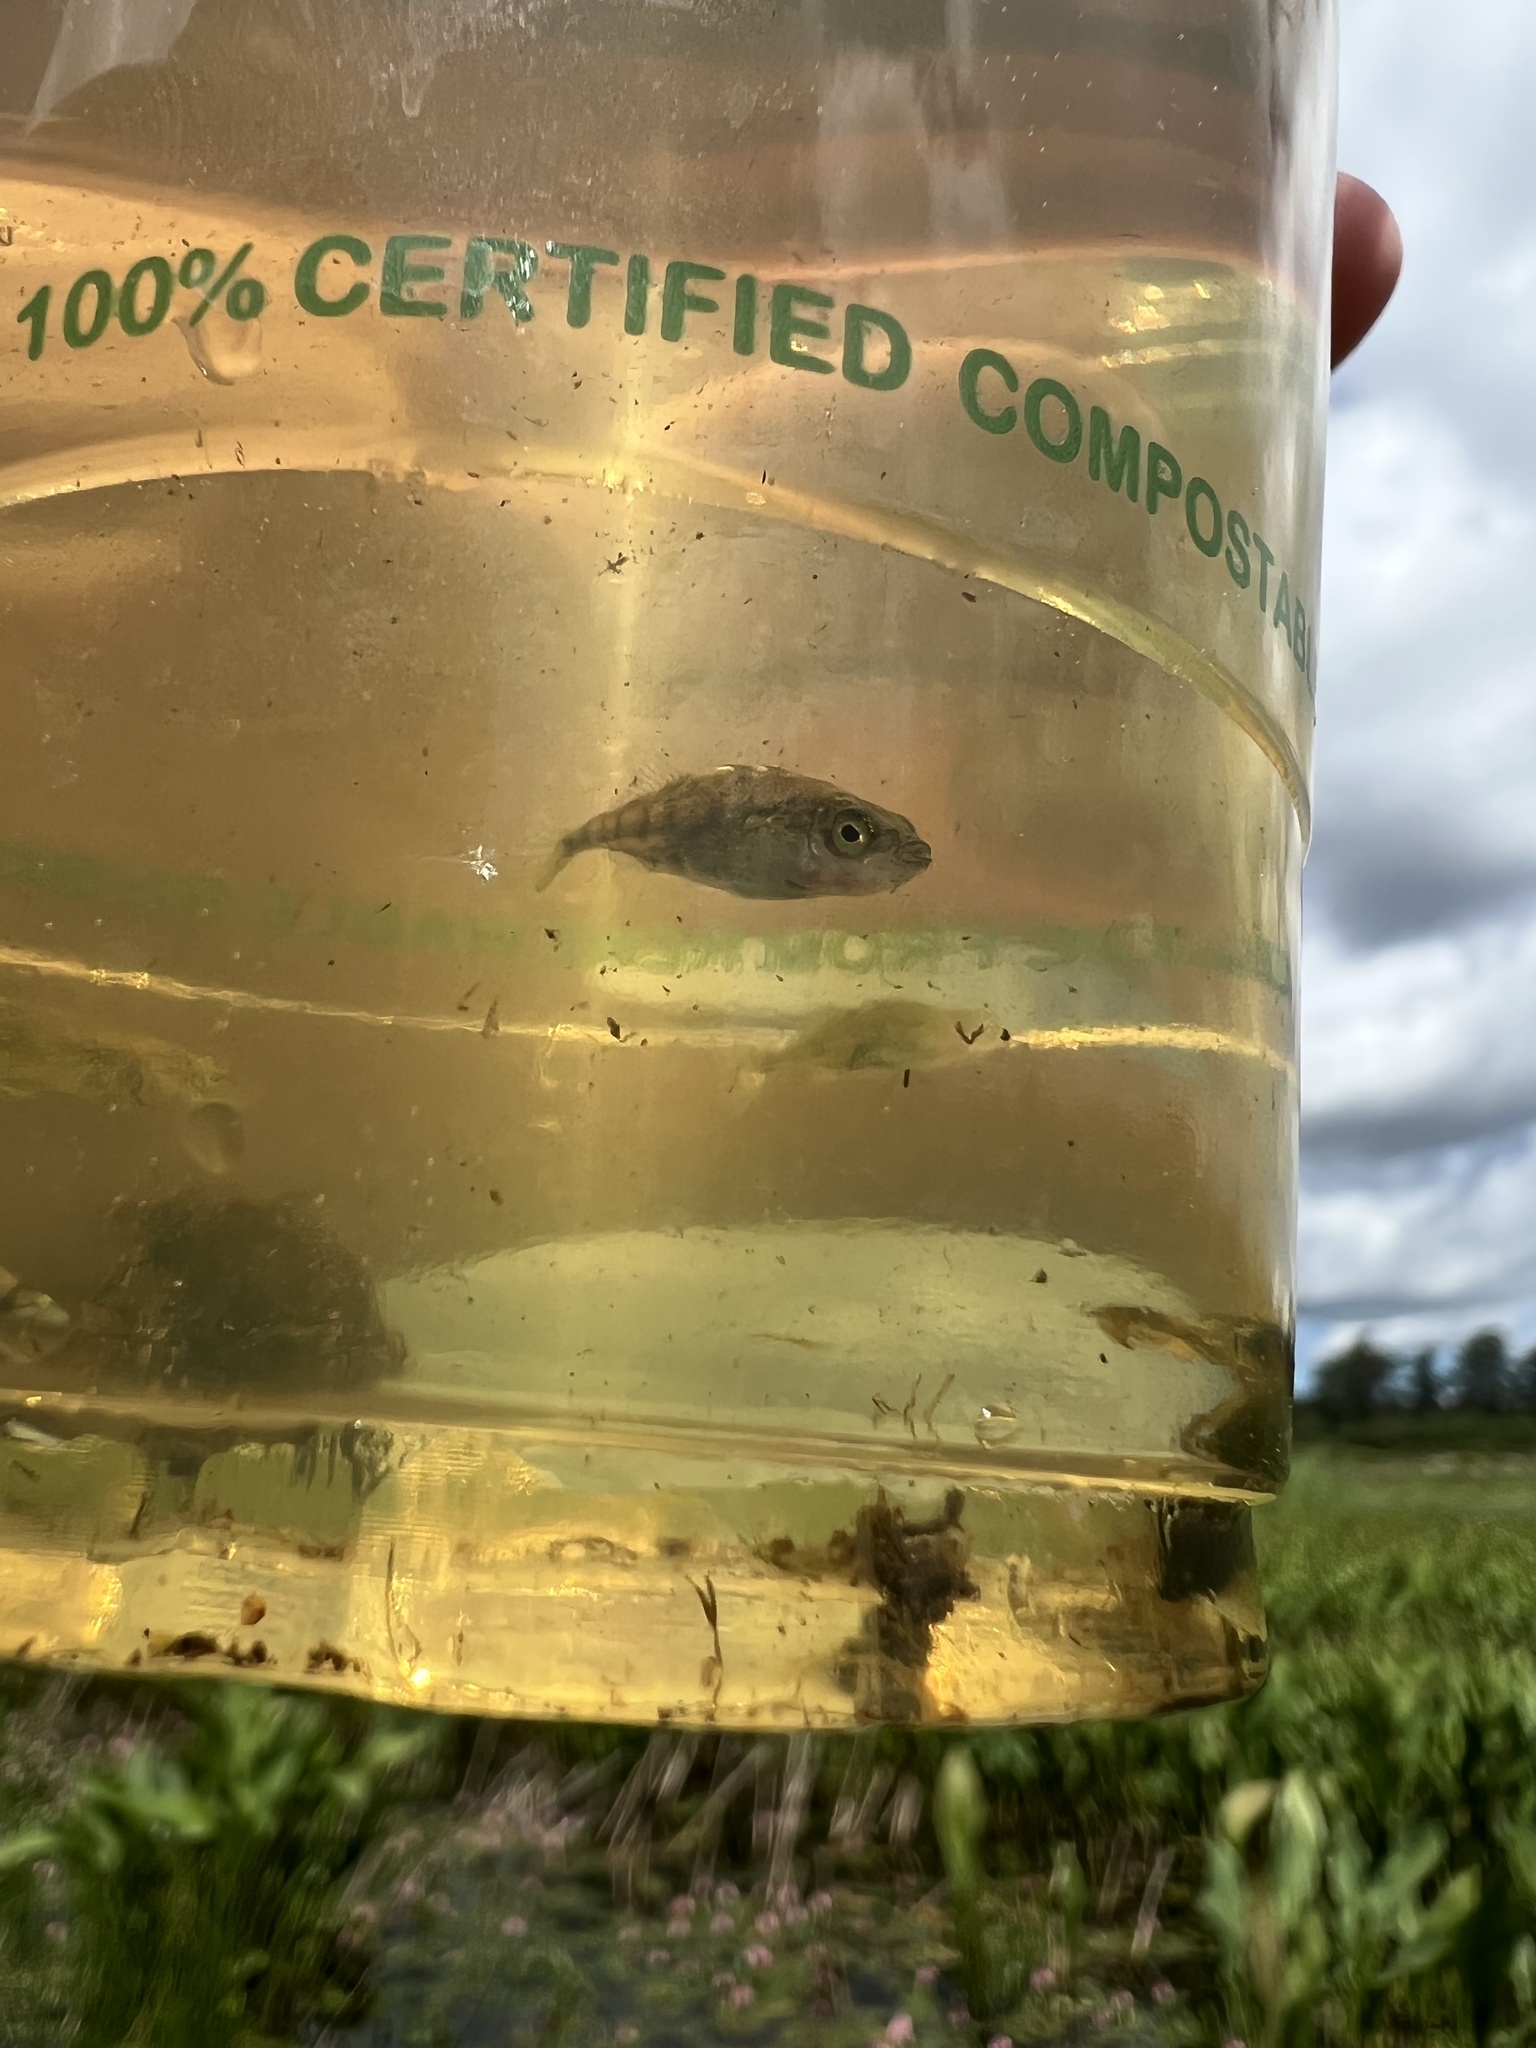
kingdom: Animalia
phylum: Chordata
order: Gasterosteiformes
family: Gasterosteidae
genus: Gasterosteus
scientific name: Gasterosteus aculeatus
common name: Three-spined stickleback
